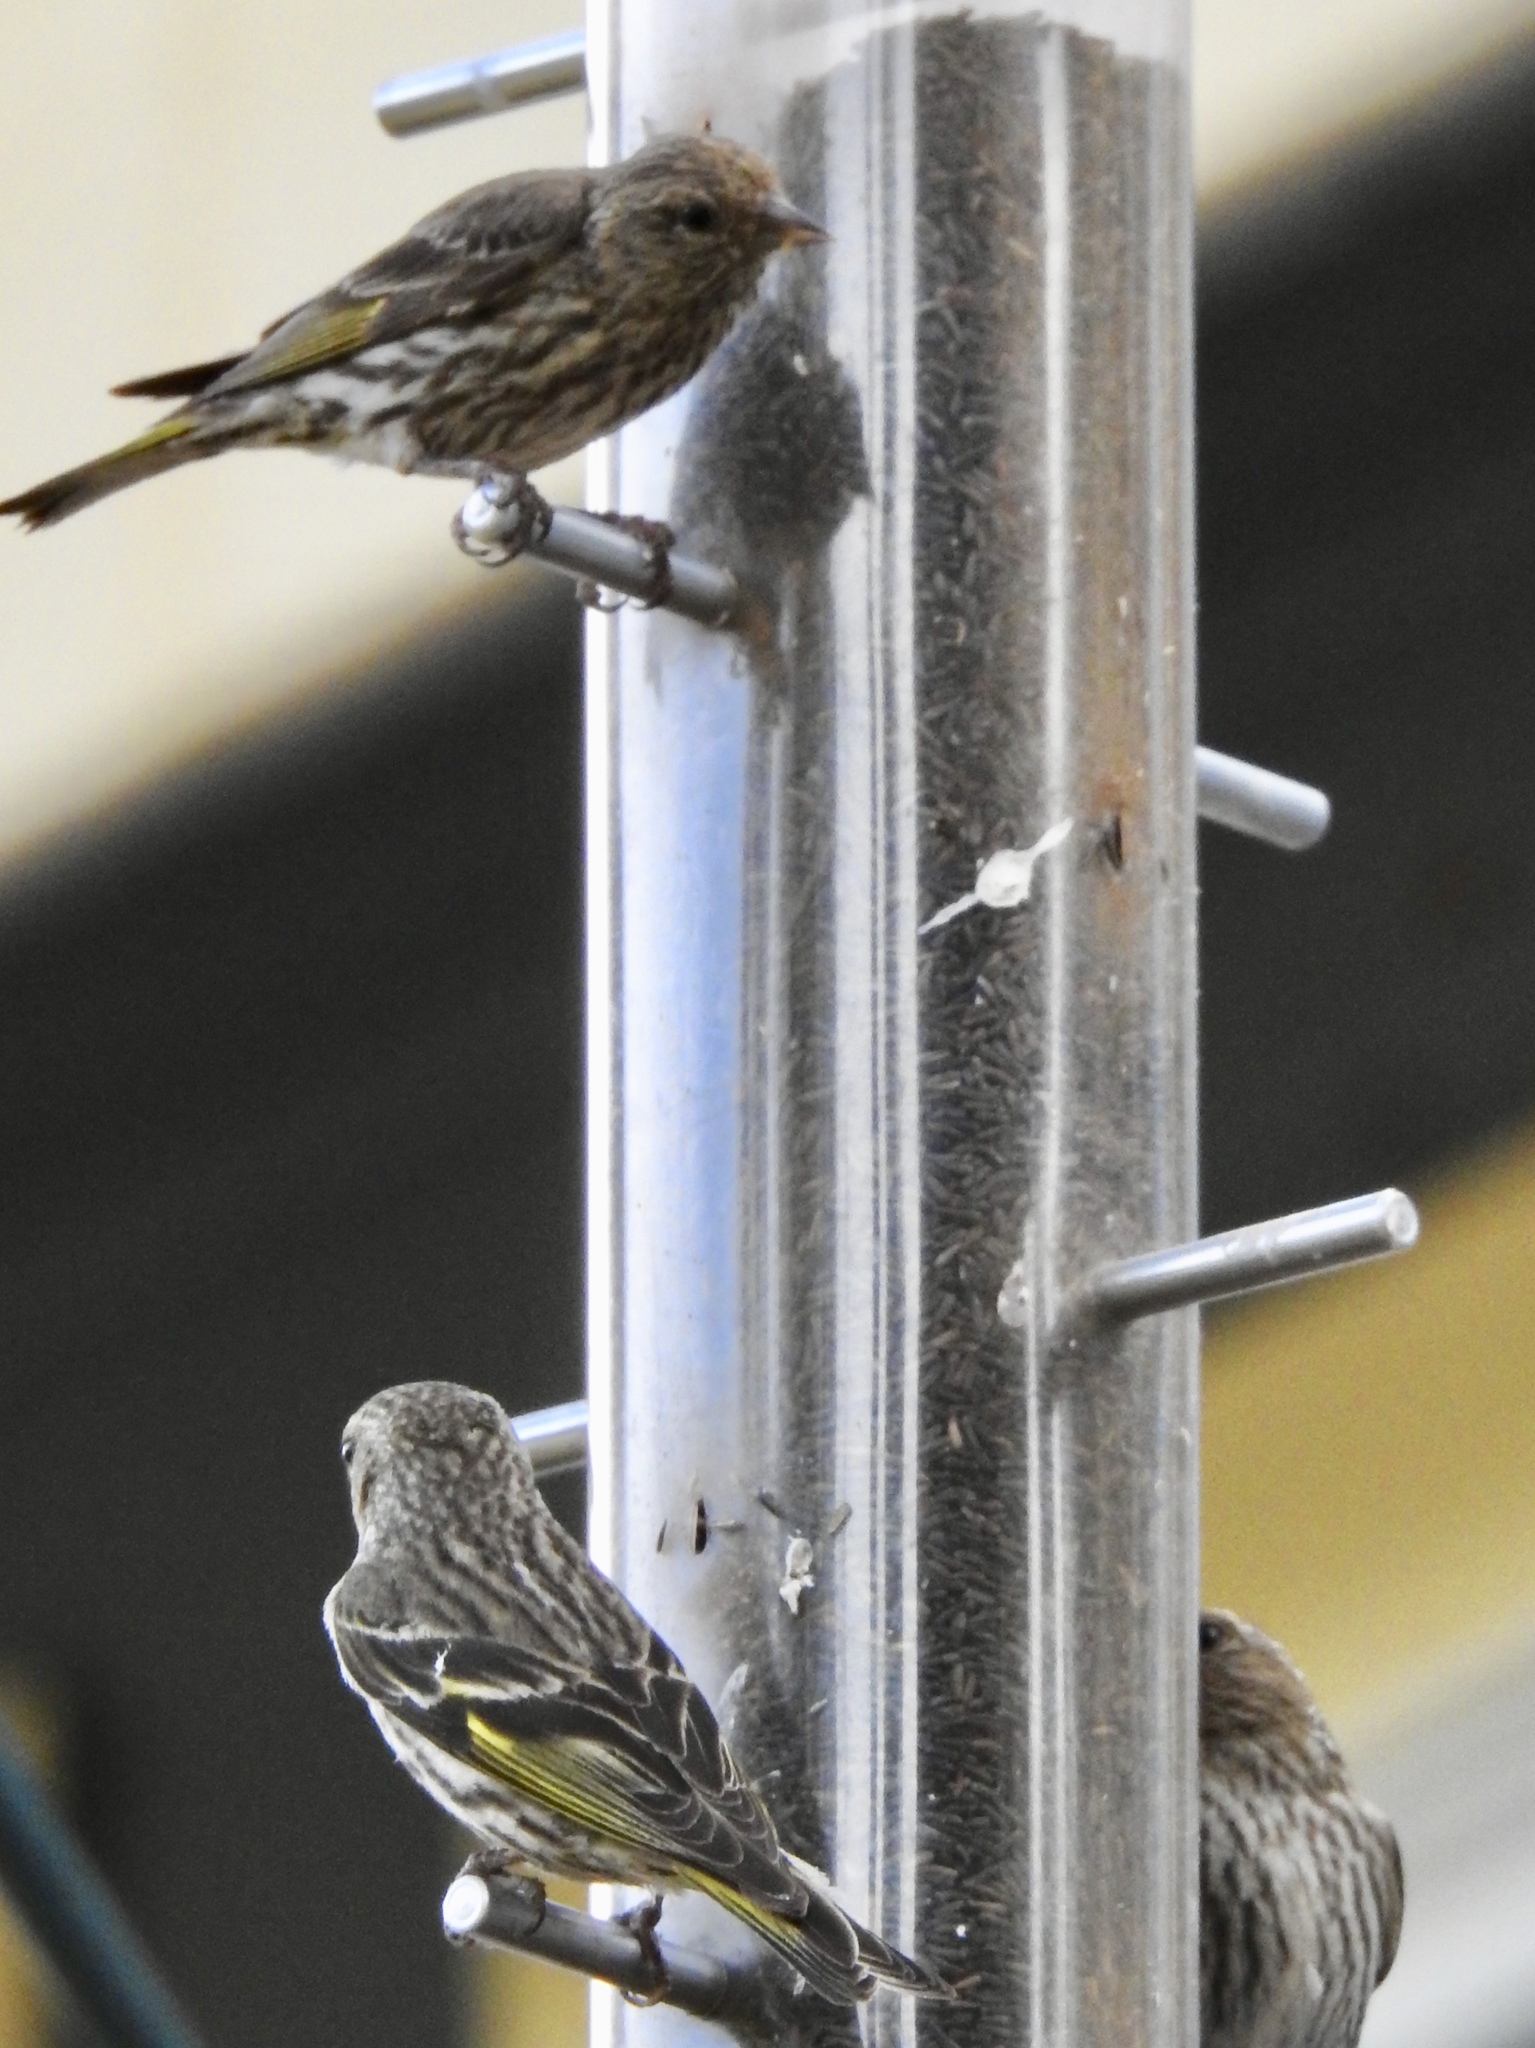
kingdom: Animalia
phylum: Chordata
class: Aves
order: Passeriformes
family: Fringillidae
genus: Spinus
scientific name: Spinus pinus
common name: Pine siskin
